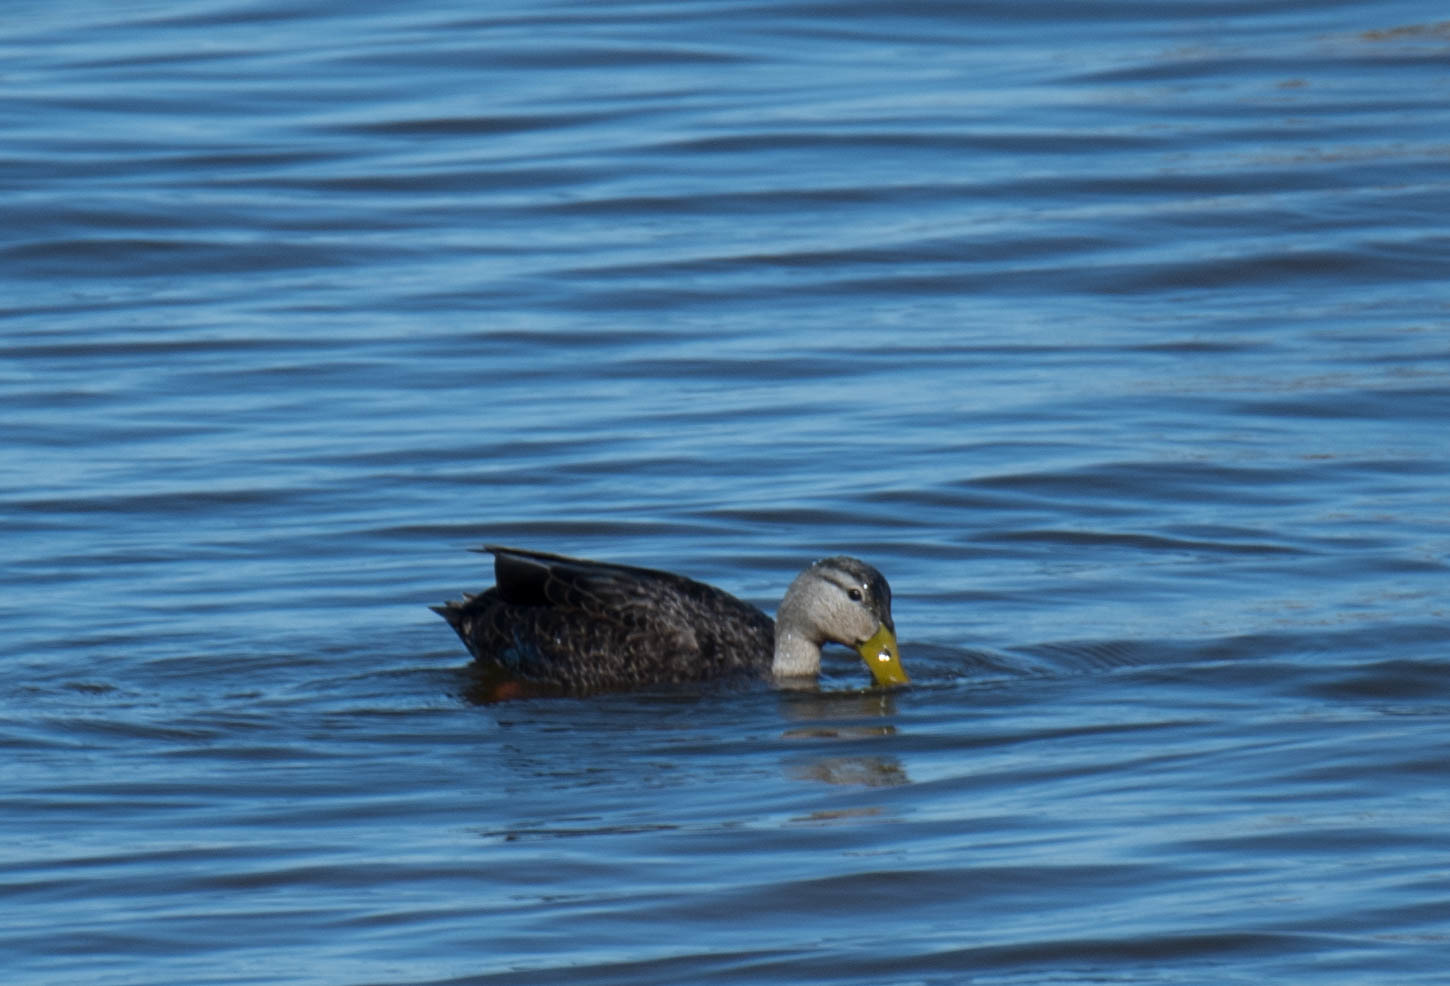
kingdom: Animalia
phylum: Chordata
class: Aves
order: Anseriformes
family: Anatidae
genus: Anas
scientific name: Anas rubripes
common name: American black duck
